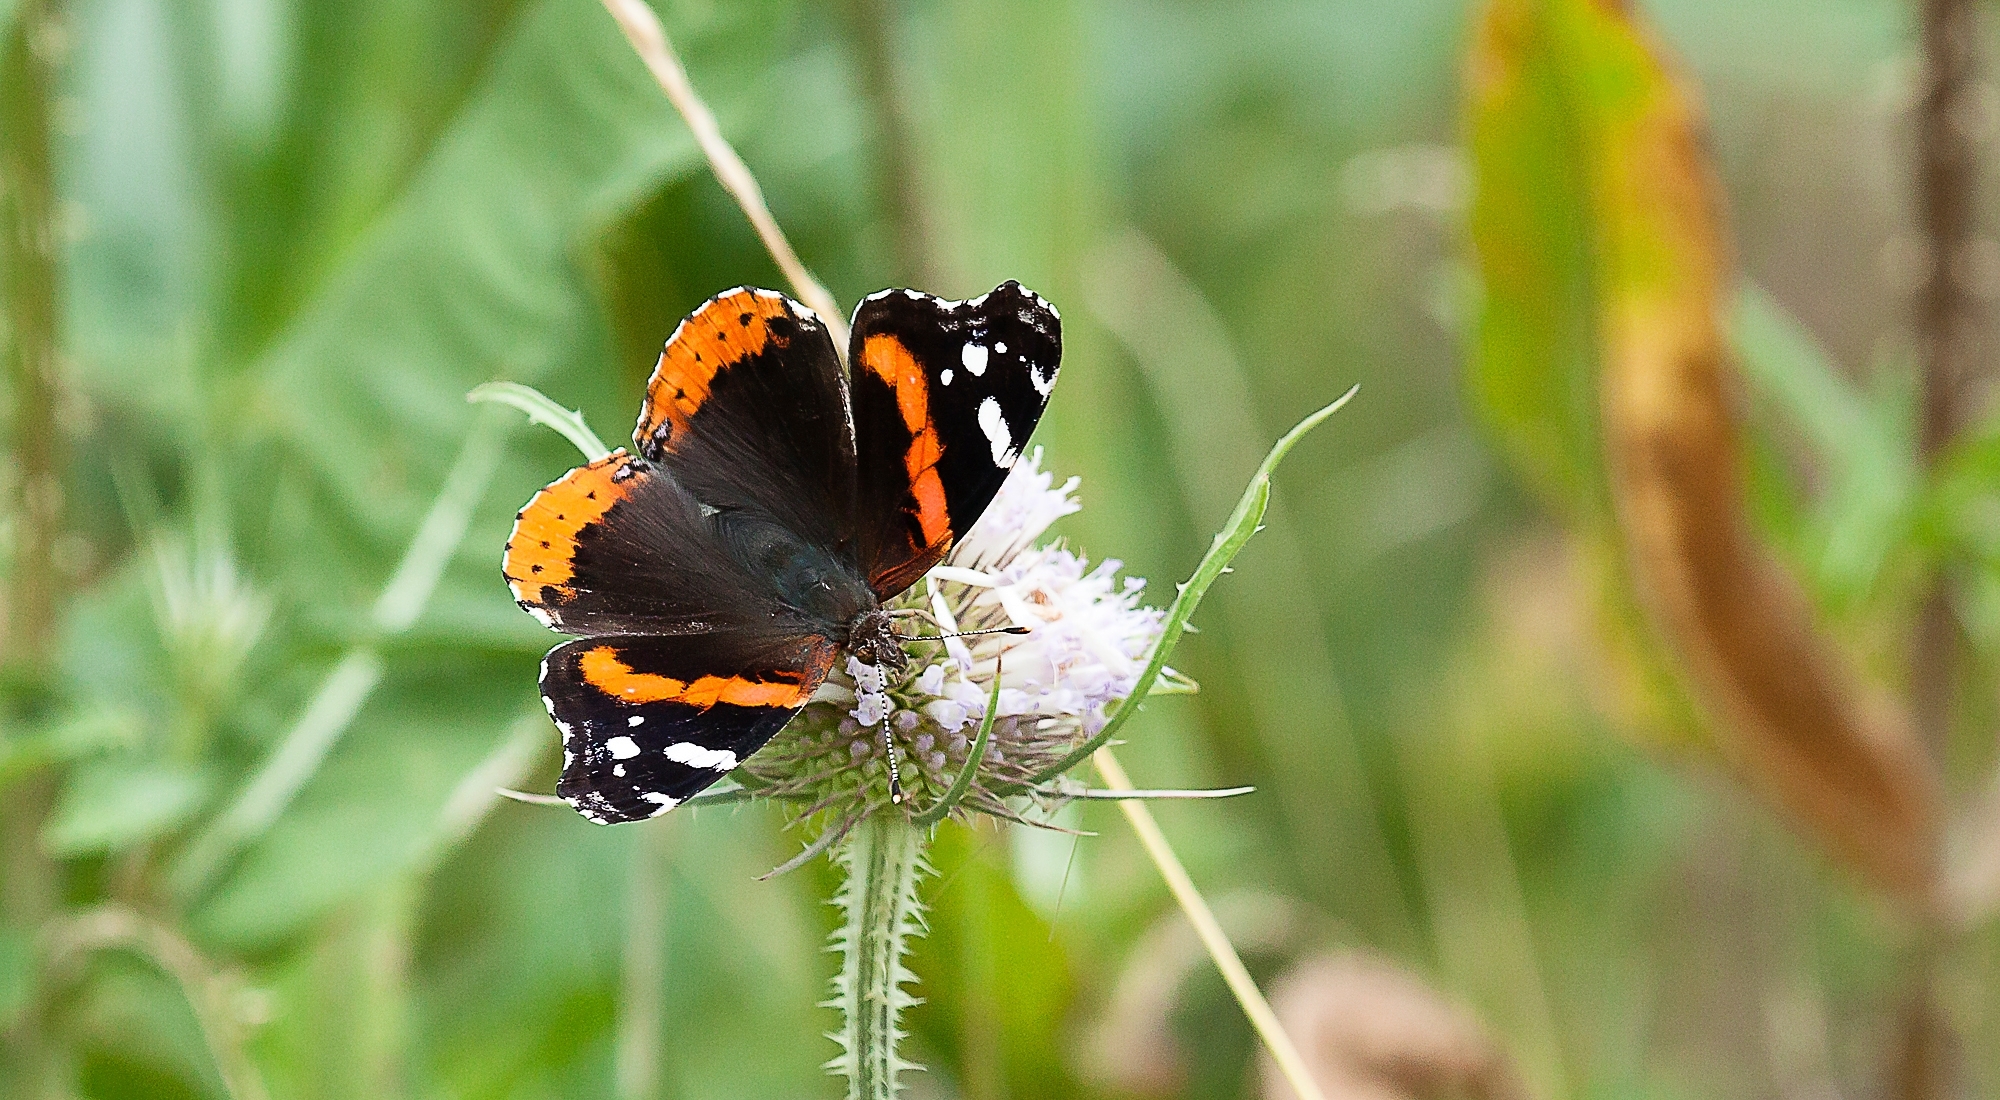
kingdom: Animalia
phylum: Arthropoda
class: Insecta
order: Lepidoptera
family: Nymphalidae
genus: Vanessa
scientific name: Vanessa atalanta
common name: Red admiral
